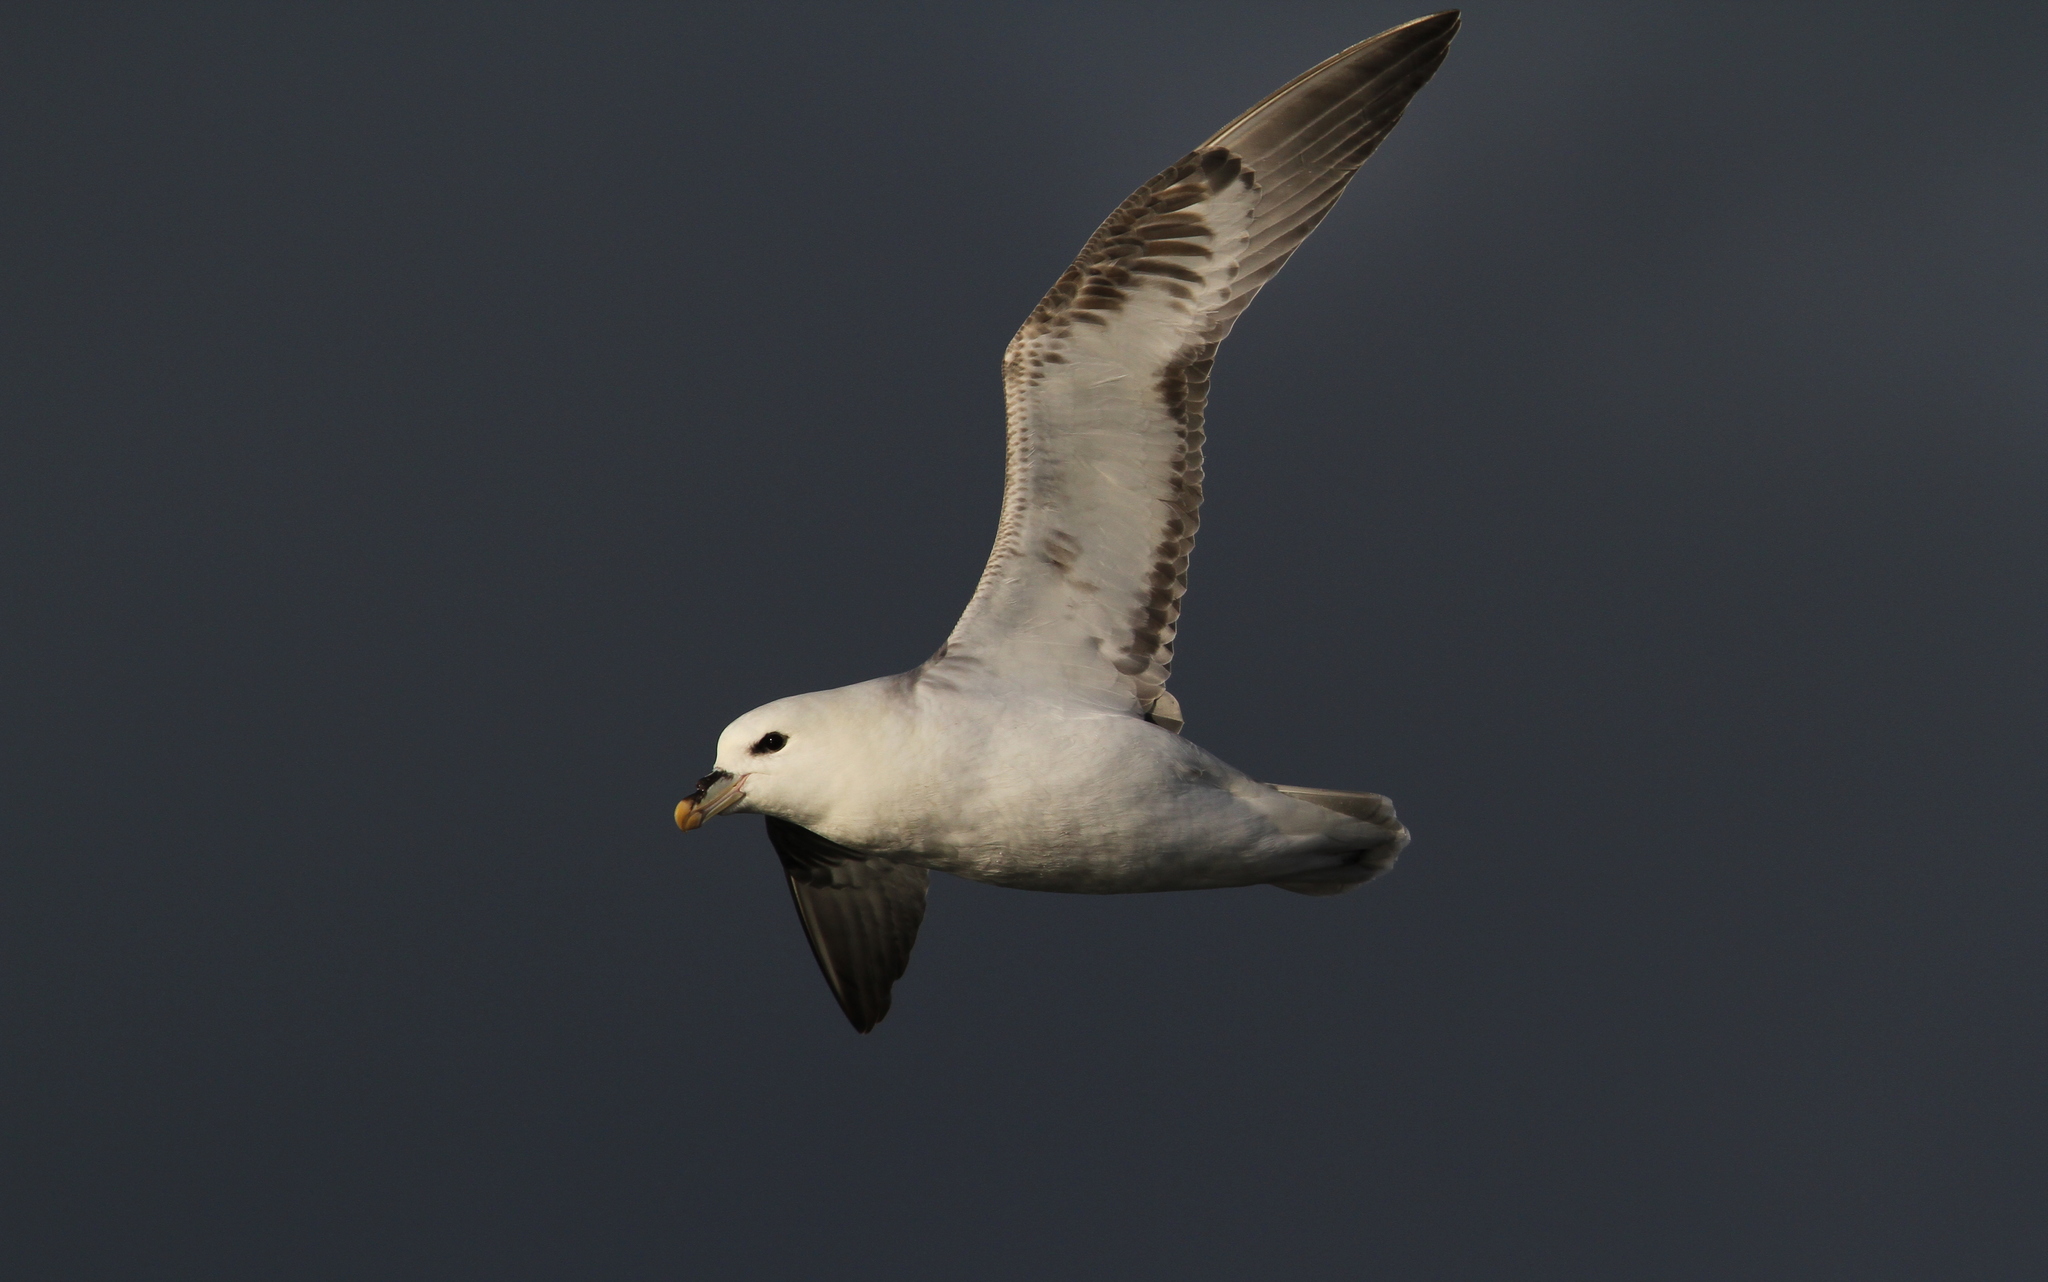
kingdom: Animalia
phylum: Chordata
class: Aves
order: Procellariiformes
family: Procellariidae
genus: Fulmarus
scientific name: Fulmarus glacialis
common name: Northern fulmar
